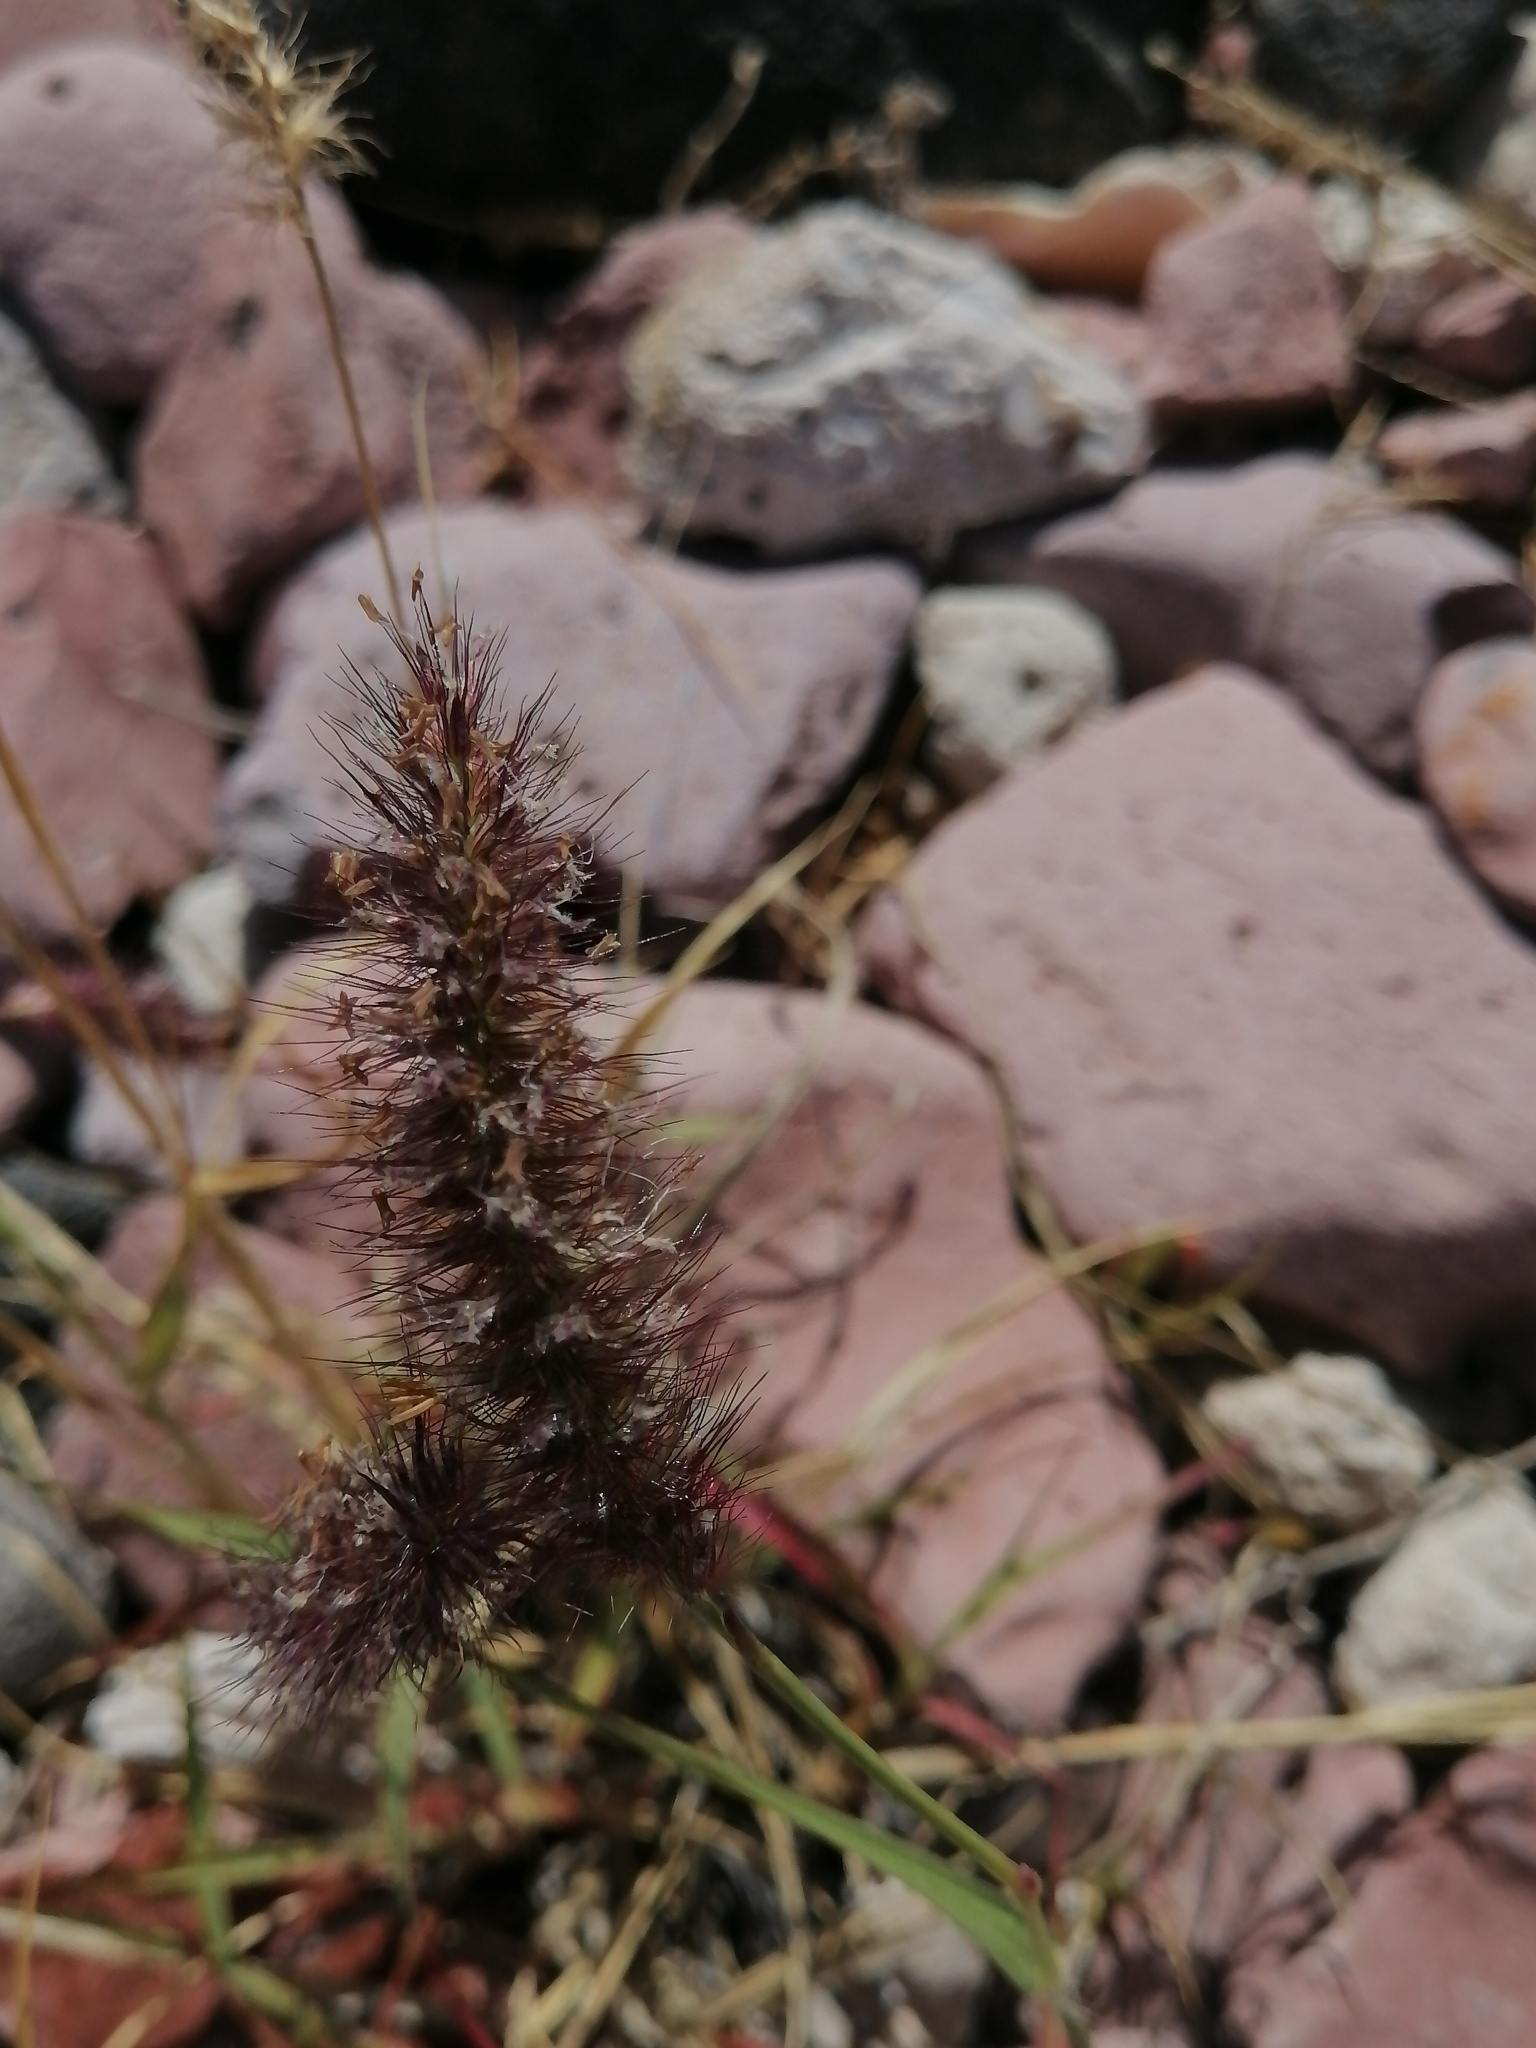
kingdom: Plantae
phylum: Tracheophyta
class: Liliopsida
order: Poales
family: Poaceae
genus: Cenchrus
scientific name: Cenchrus ciliaris
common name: Buffelgrass
